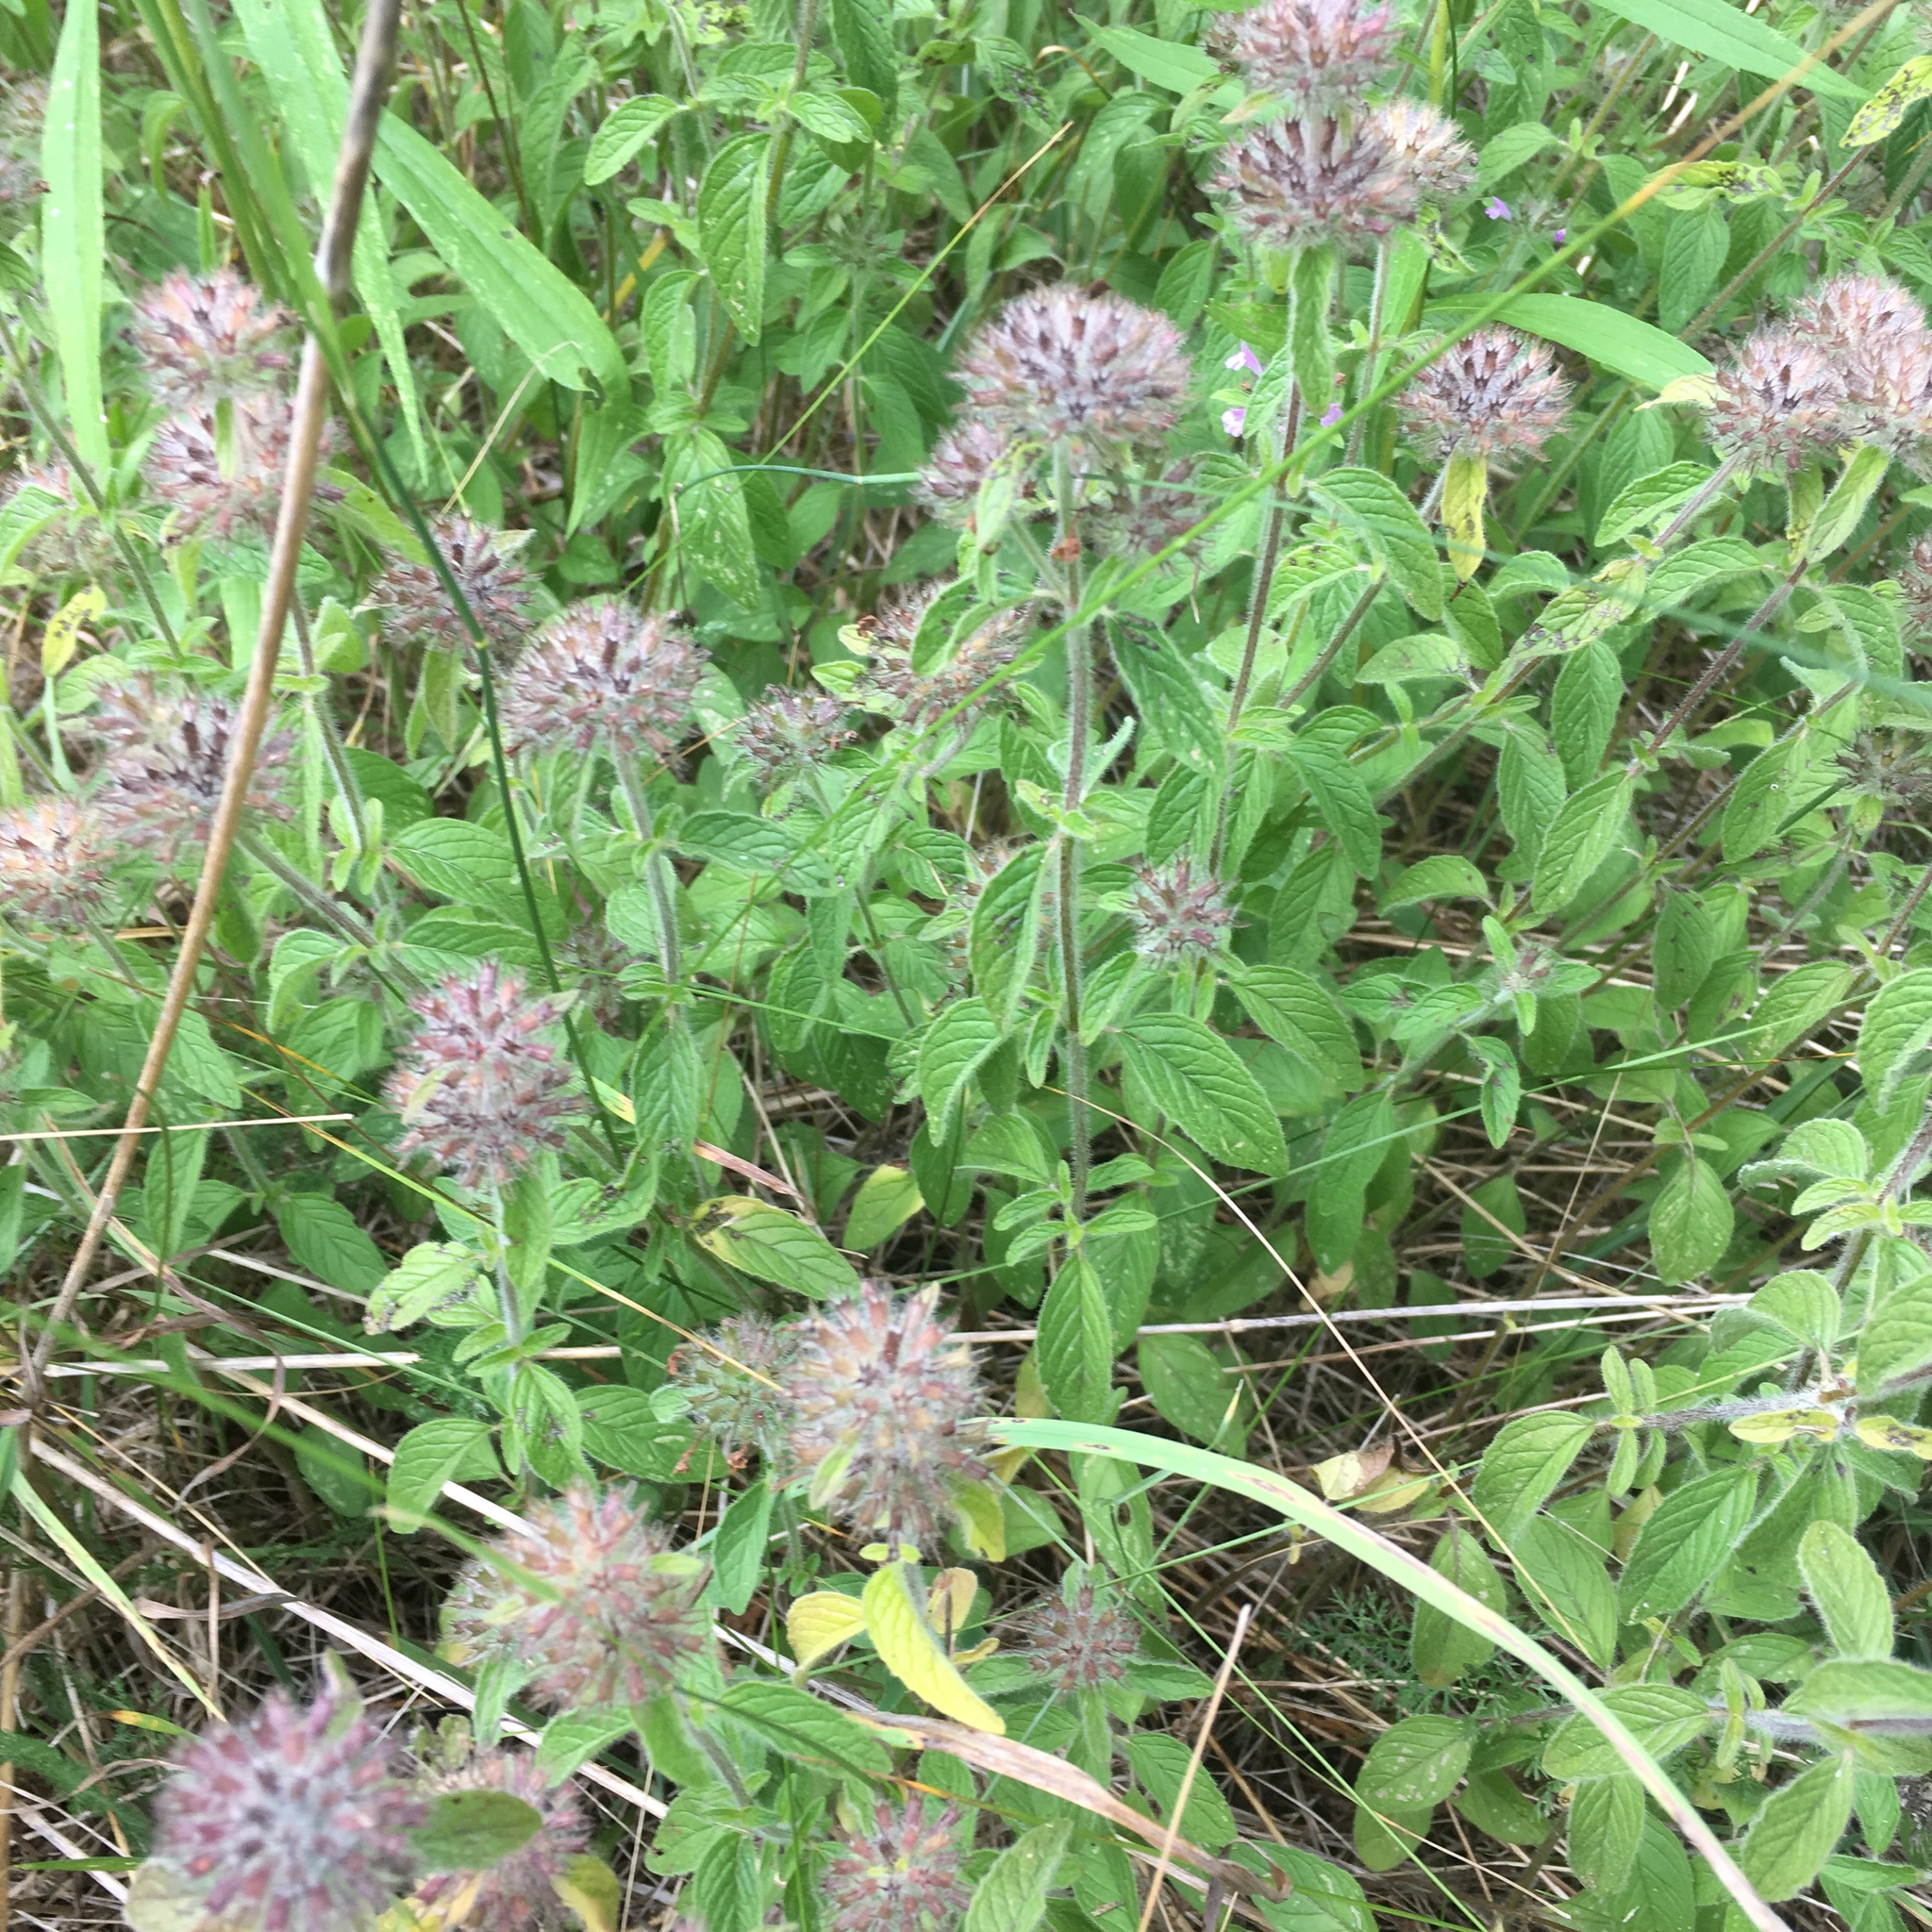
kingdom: Plantae
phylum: Tracheophyta
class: Magnoliopsida
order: Lamiales
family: Lamiaceae
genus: Clinopodium
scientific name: Clinopodium vulgare
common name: Wild basil
